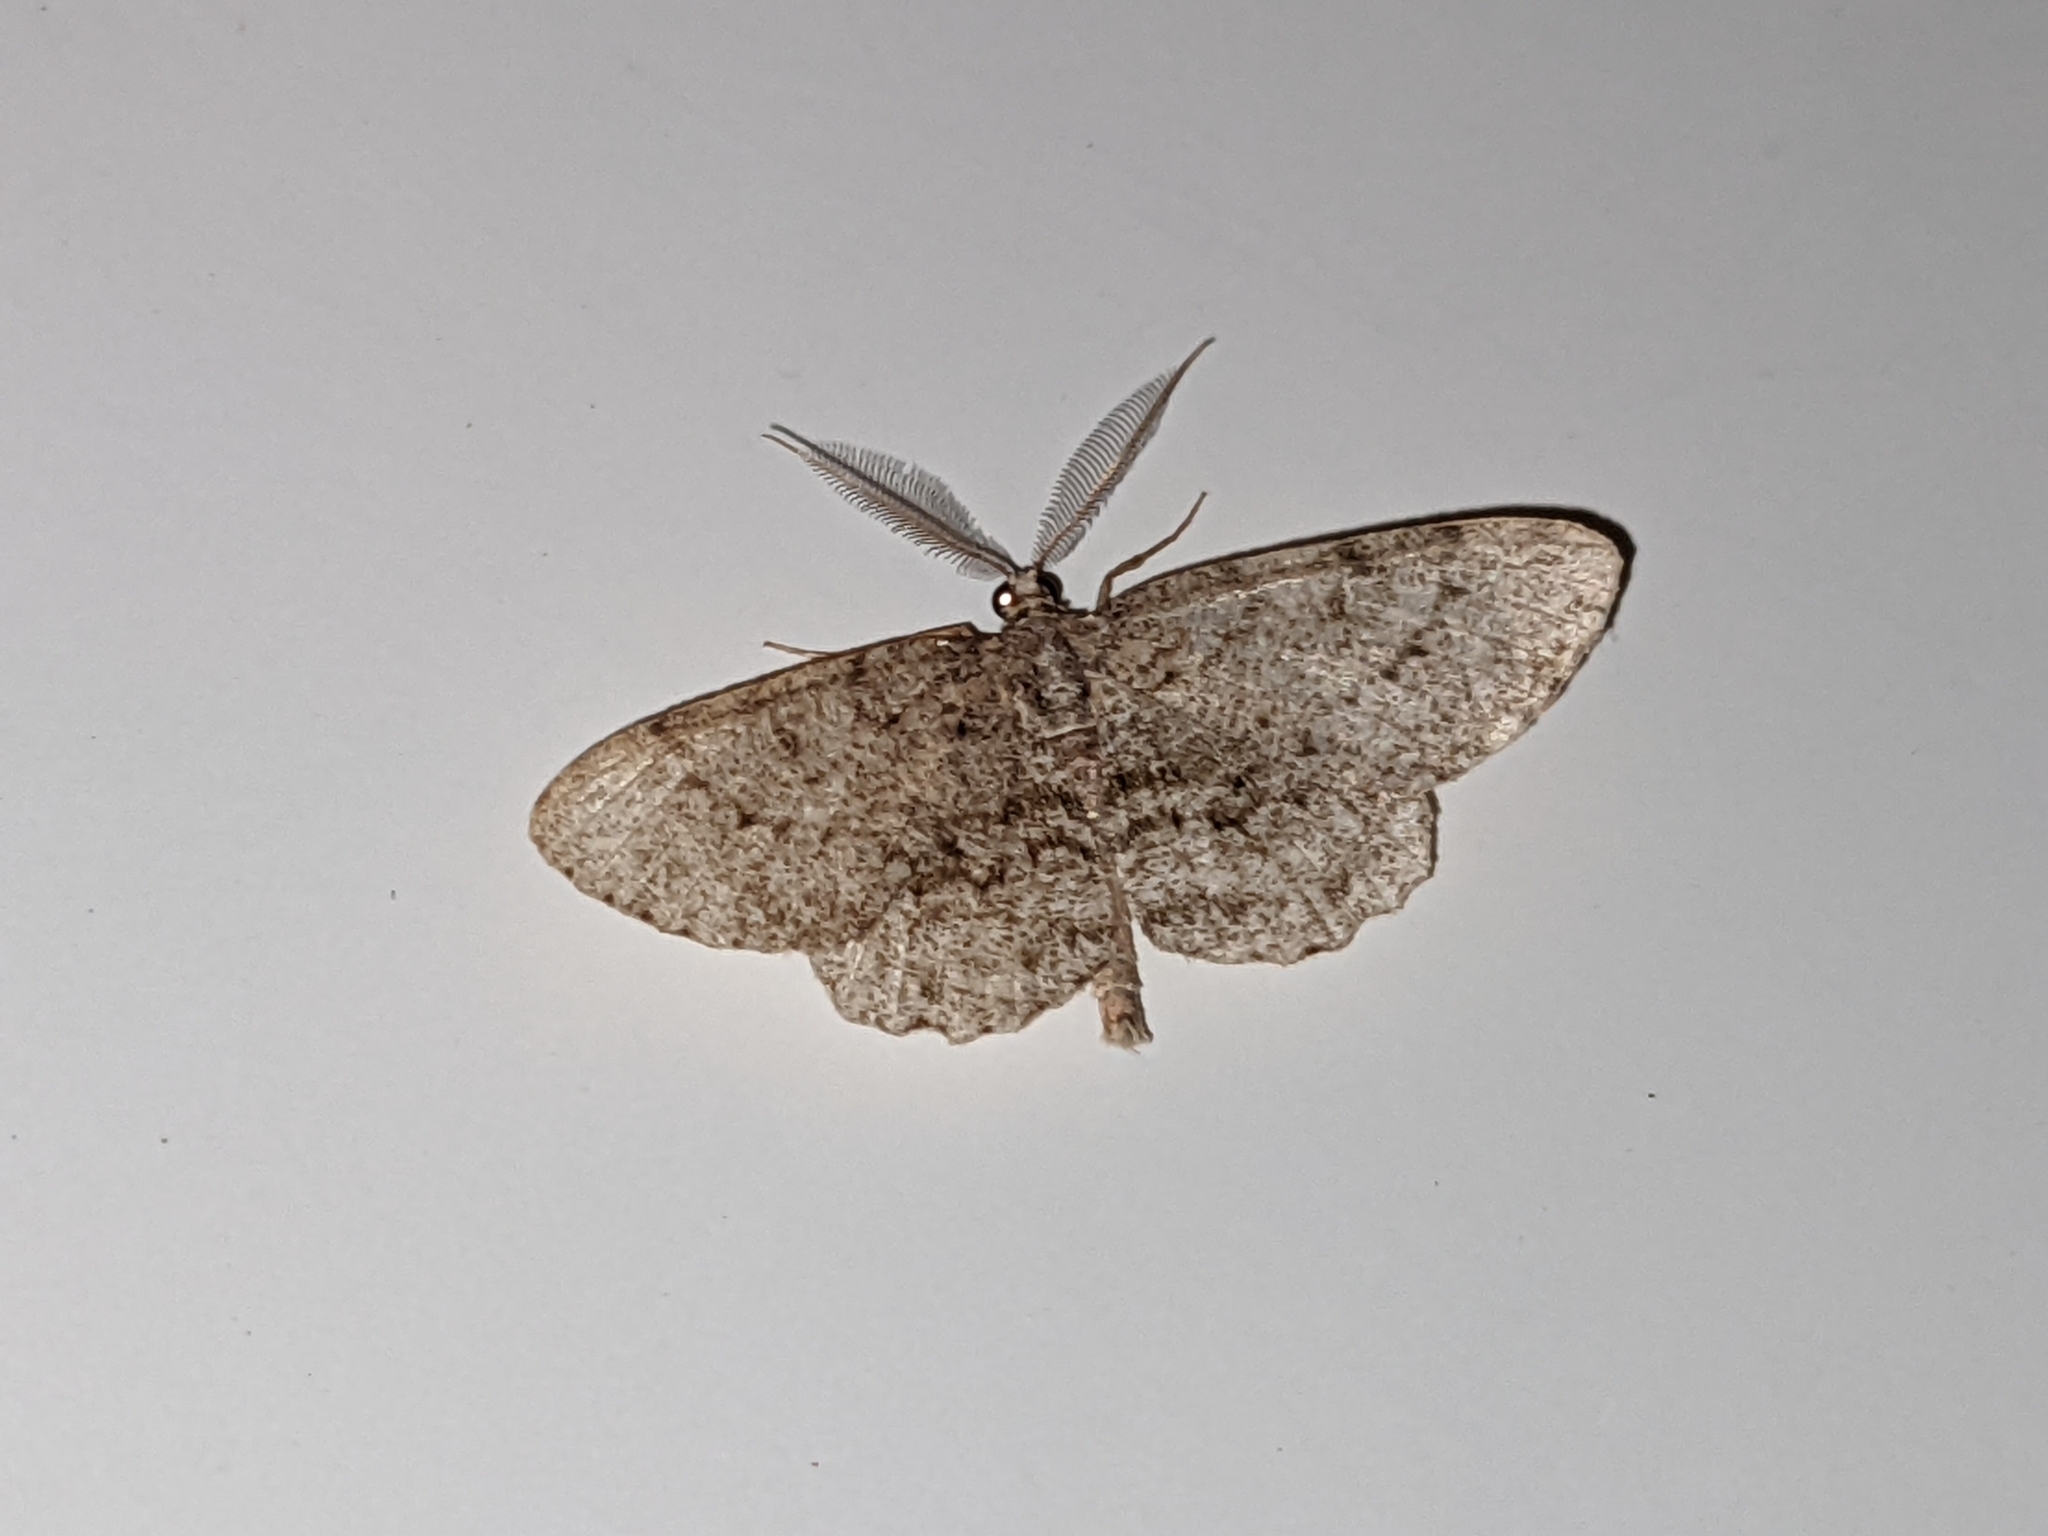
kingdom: Animalia
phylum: Arthropoda
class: Insecta
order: Lepidoptera
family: Geometridae
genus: Protoboarmia
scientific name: Protoboarmia porcelaria
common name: Porcelain gray
